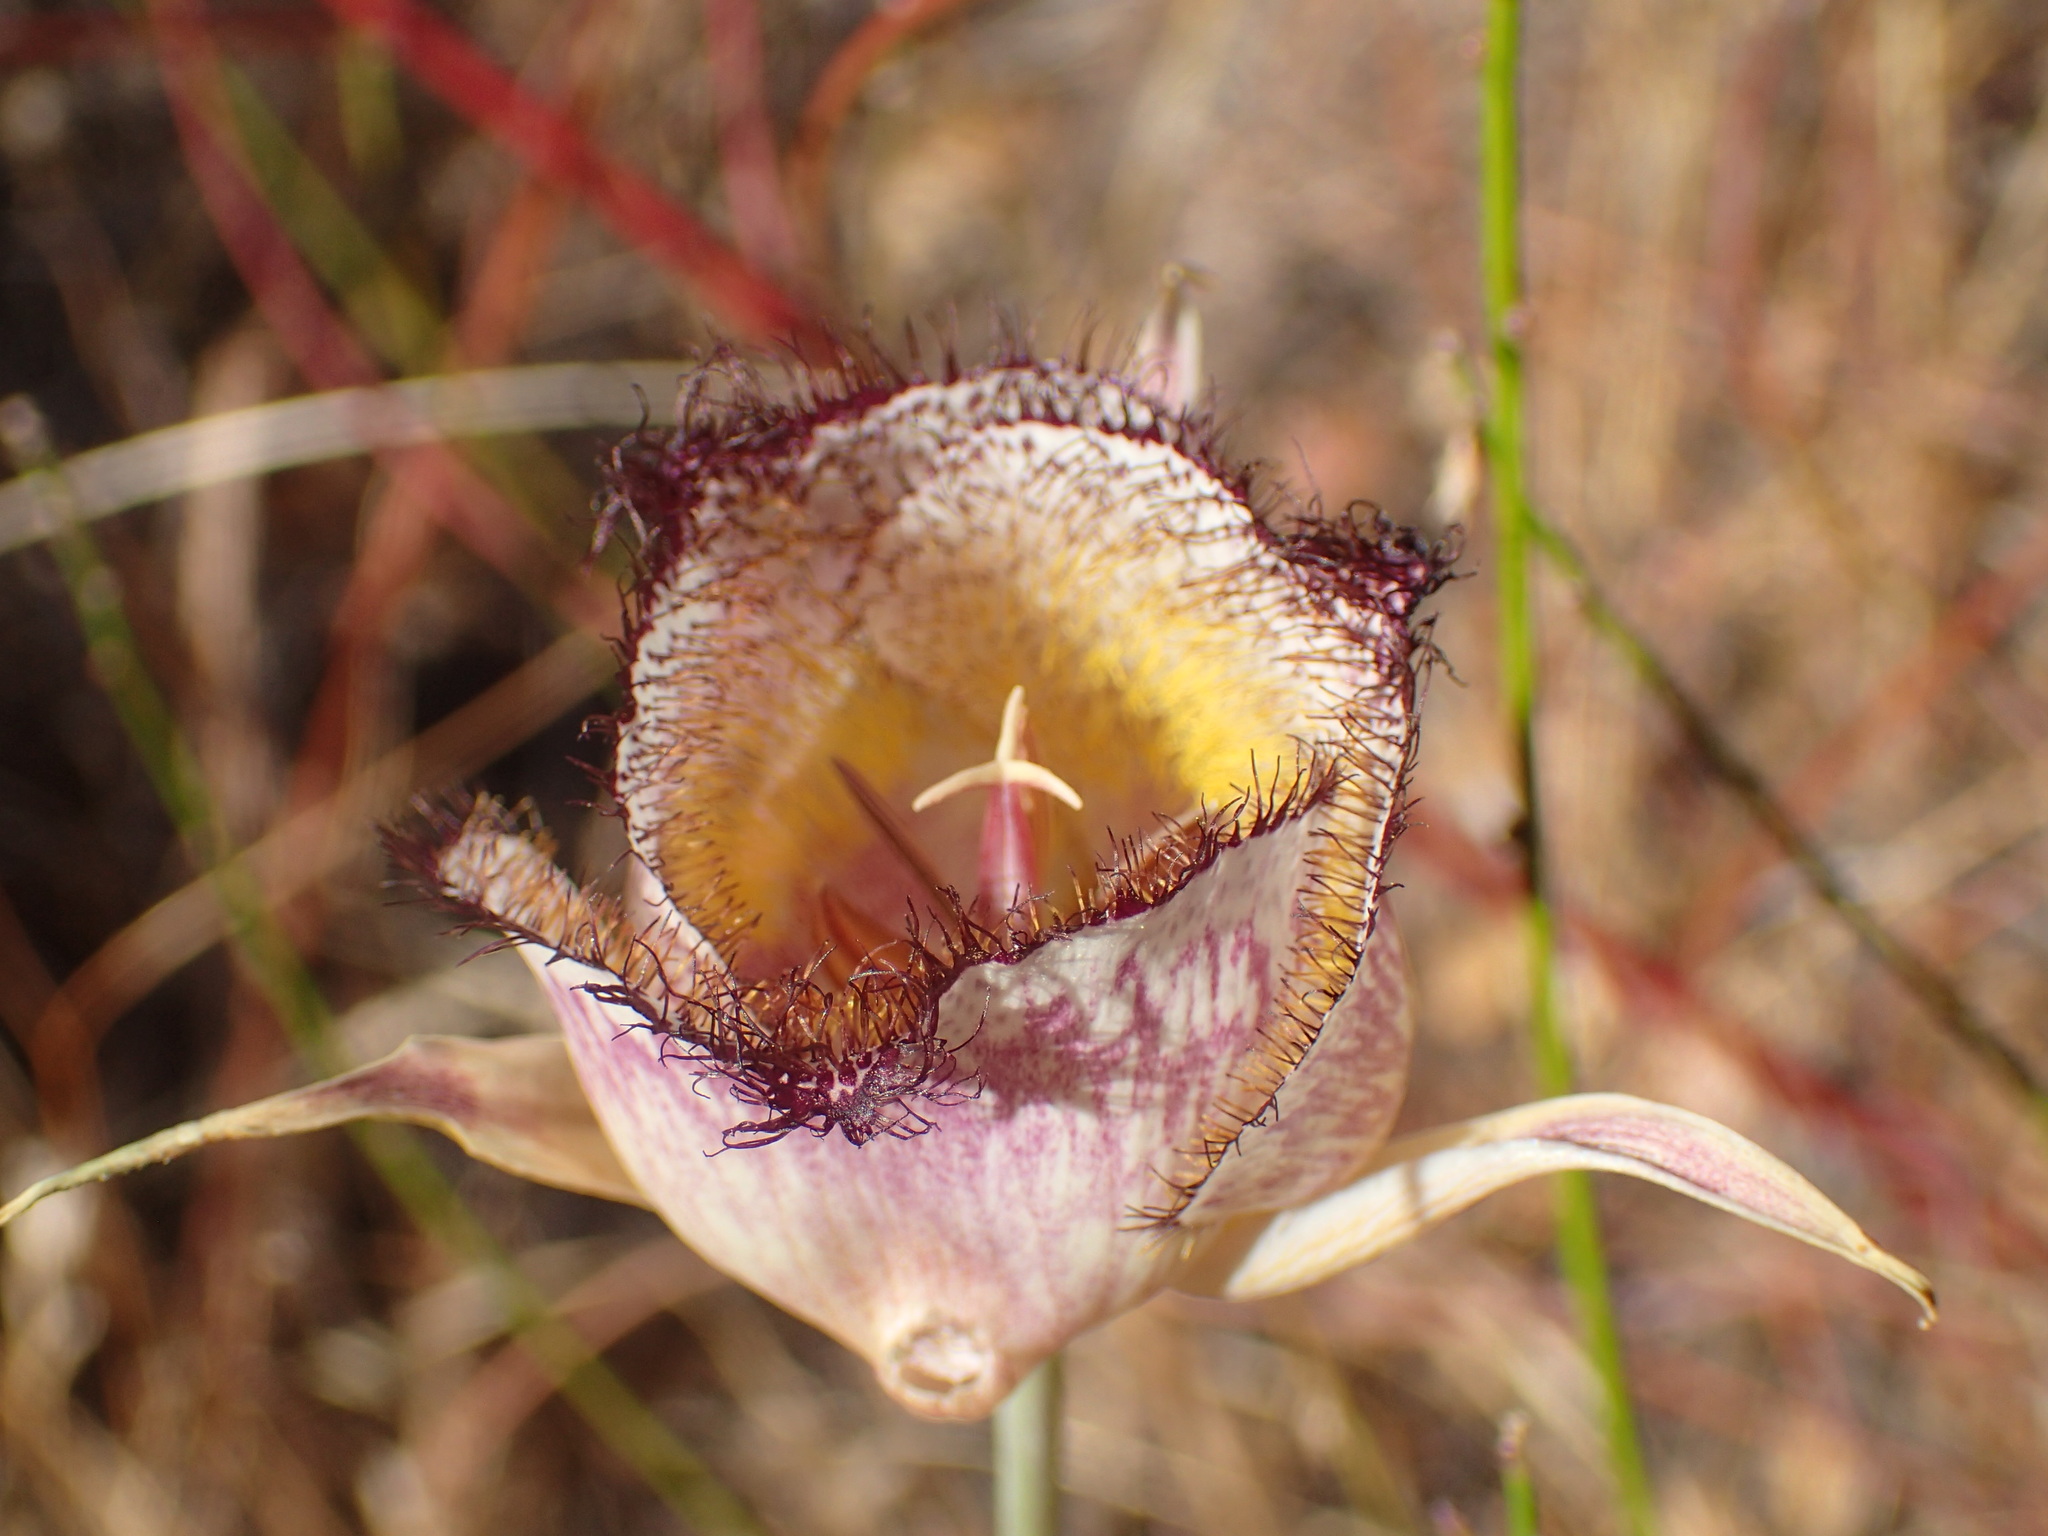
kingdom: Plantae
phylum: Tracheophyta
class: Liliopsida
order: Liliales
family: Liliaceae
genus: Calochortus
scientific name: Calochortus fimbriatus
